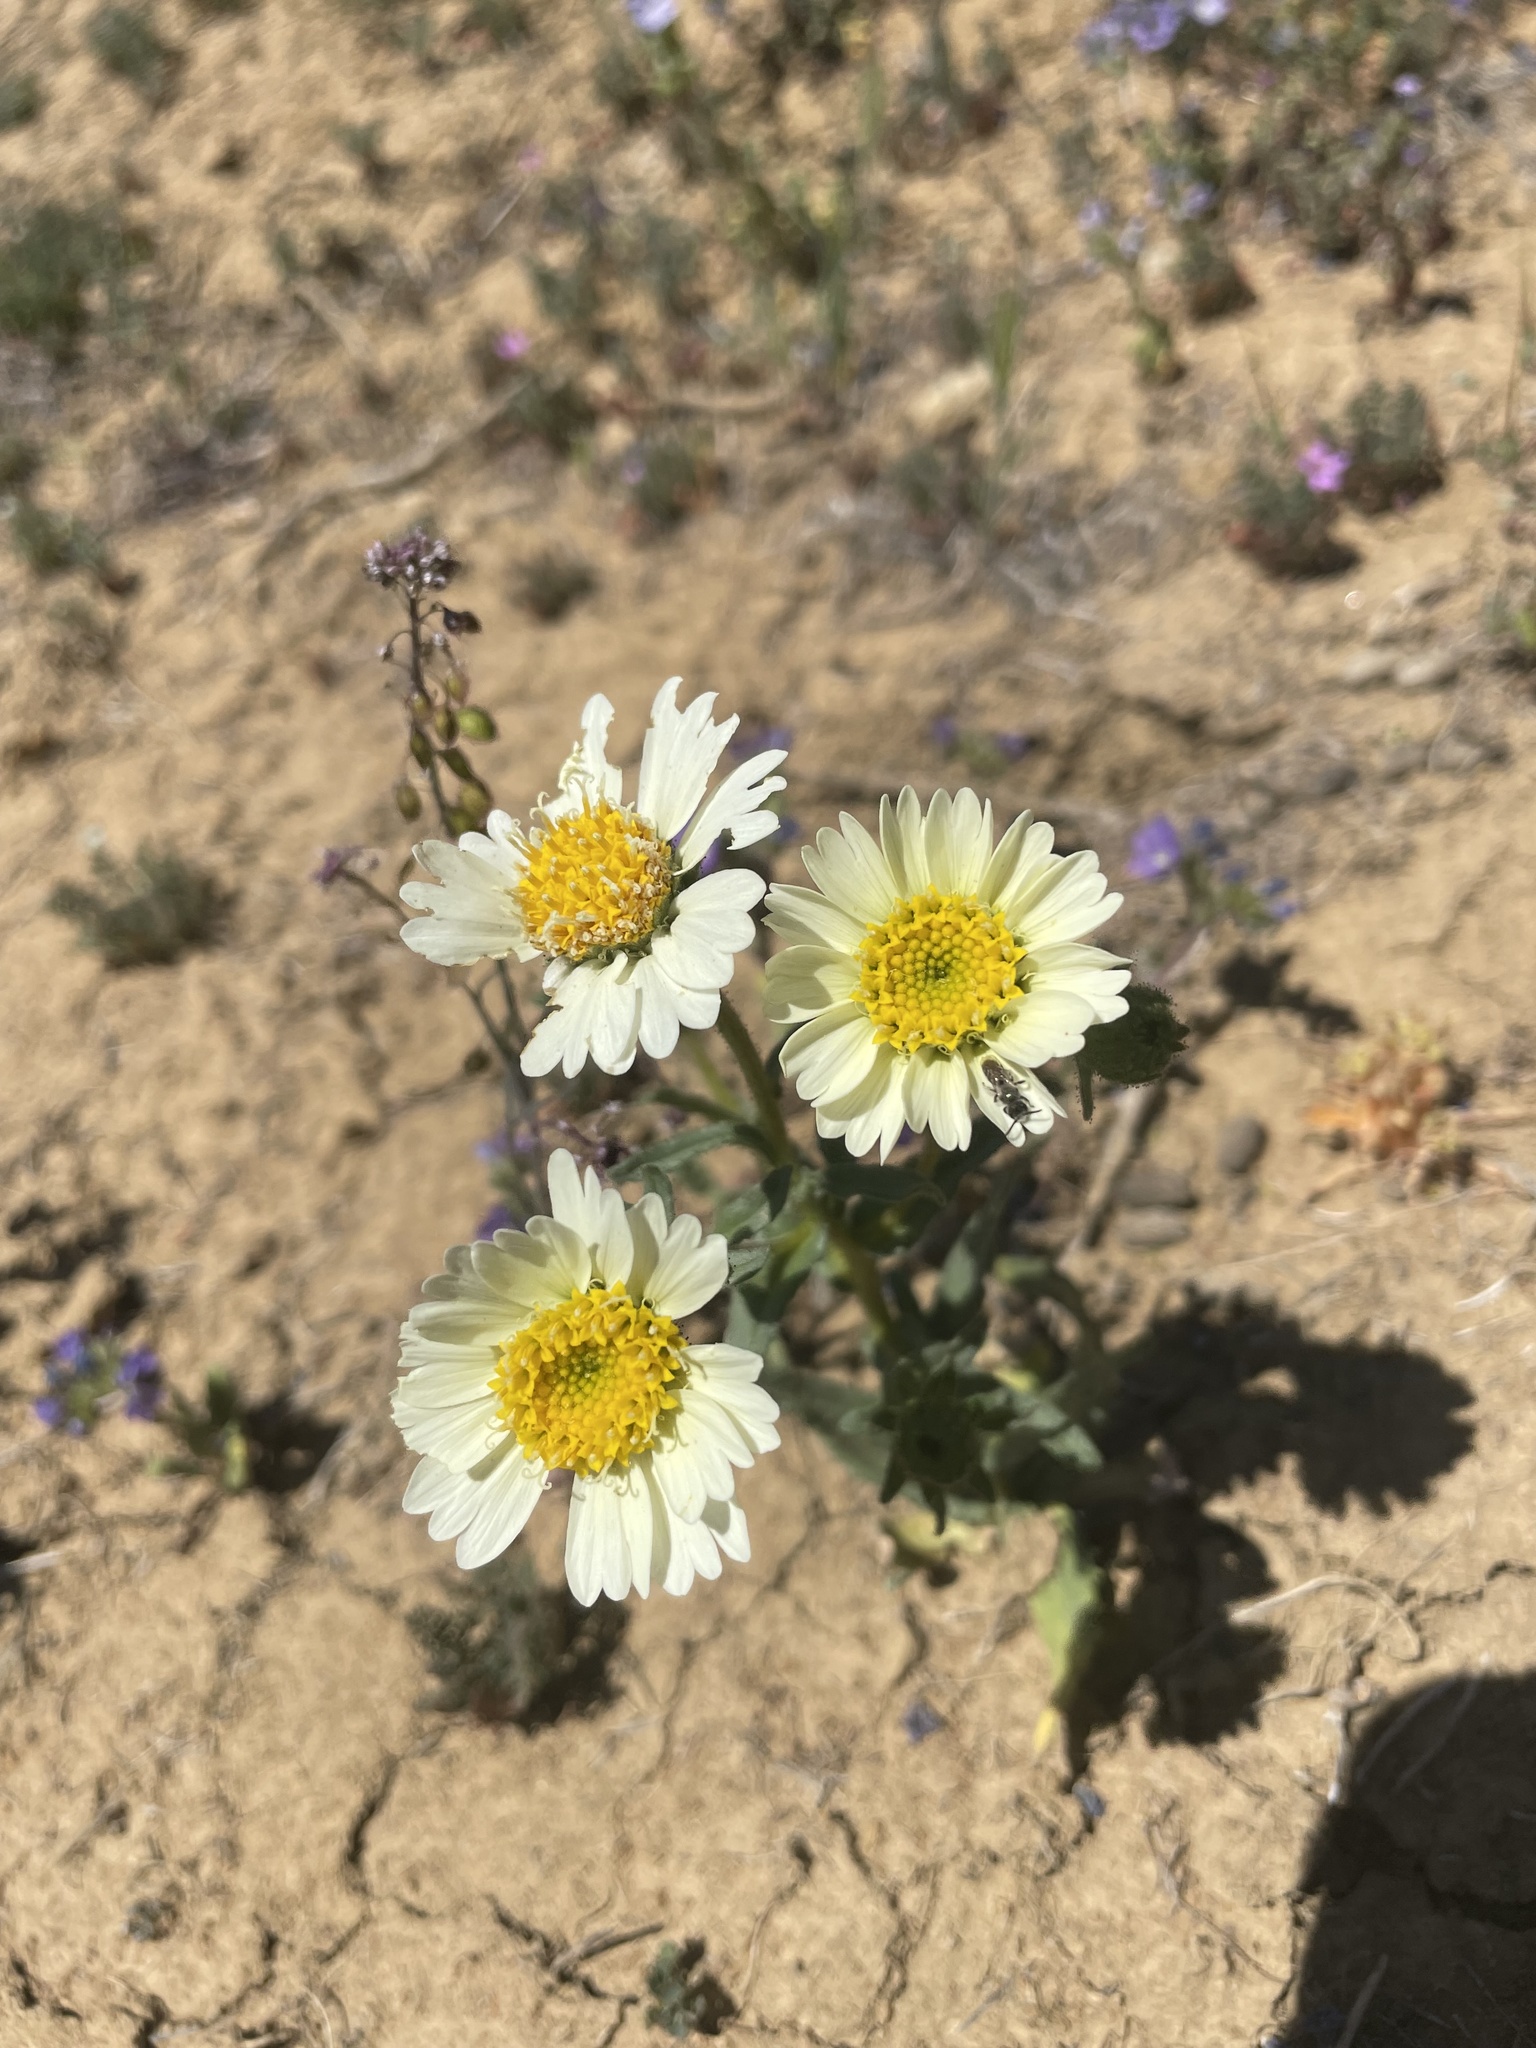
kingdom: Plantae
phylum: Tracheophyta
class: Magnoliopsida
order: Asterales
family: Asteraceae
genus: Layia
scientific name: Layia heterotricha
